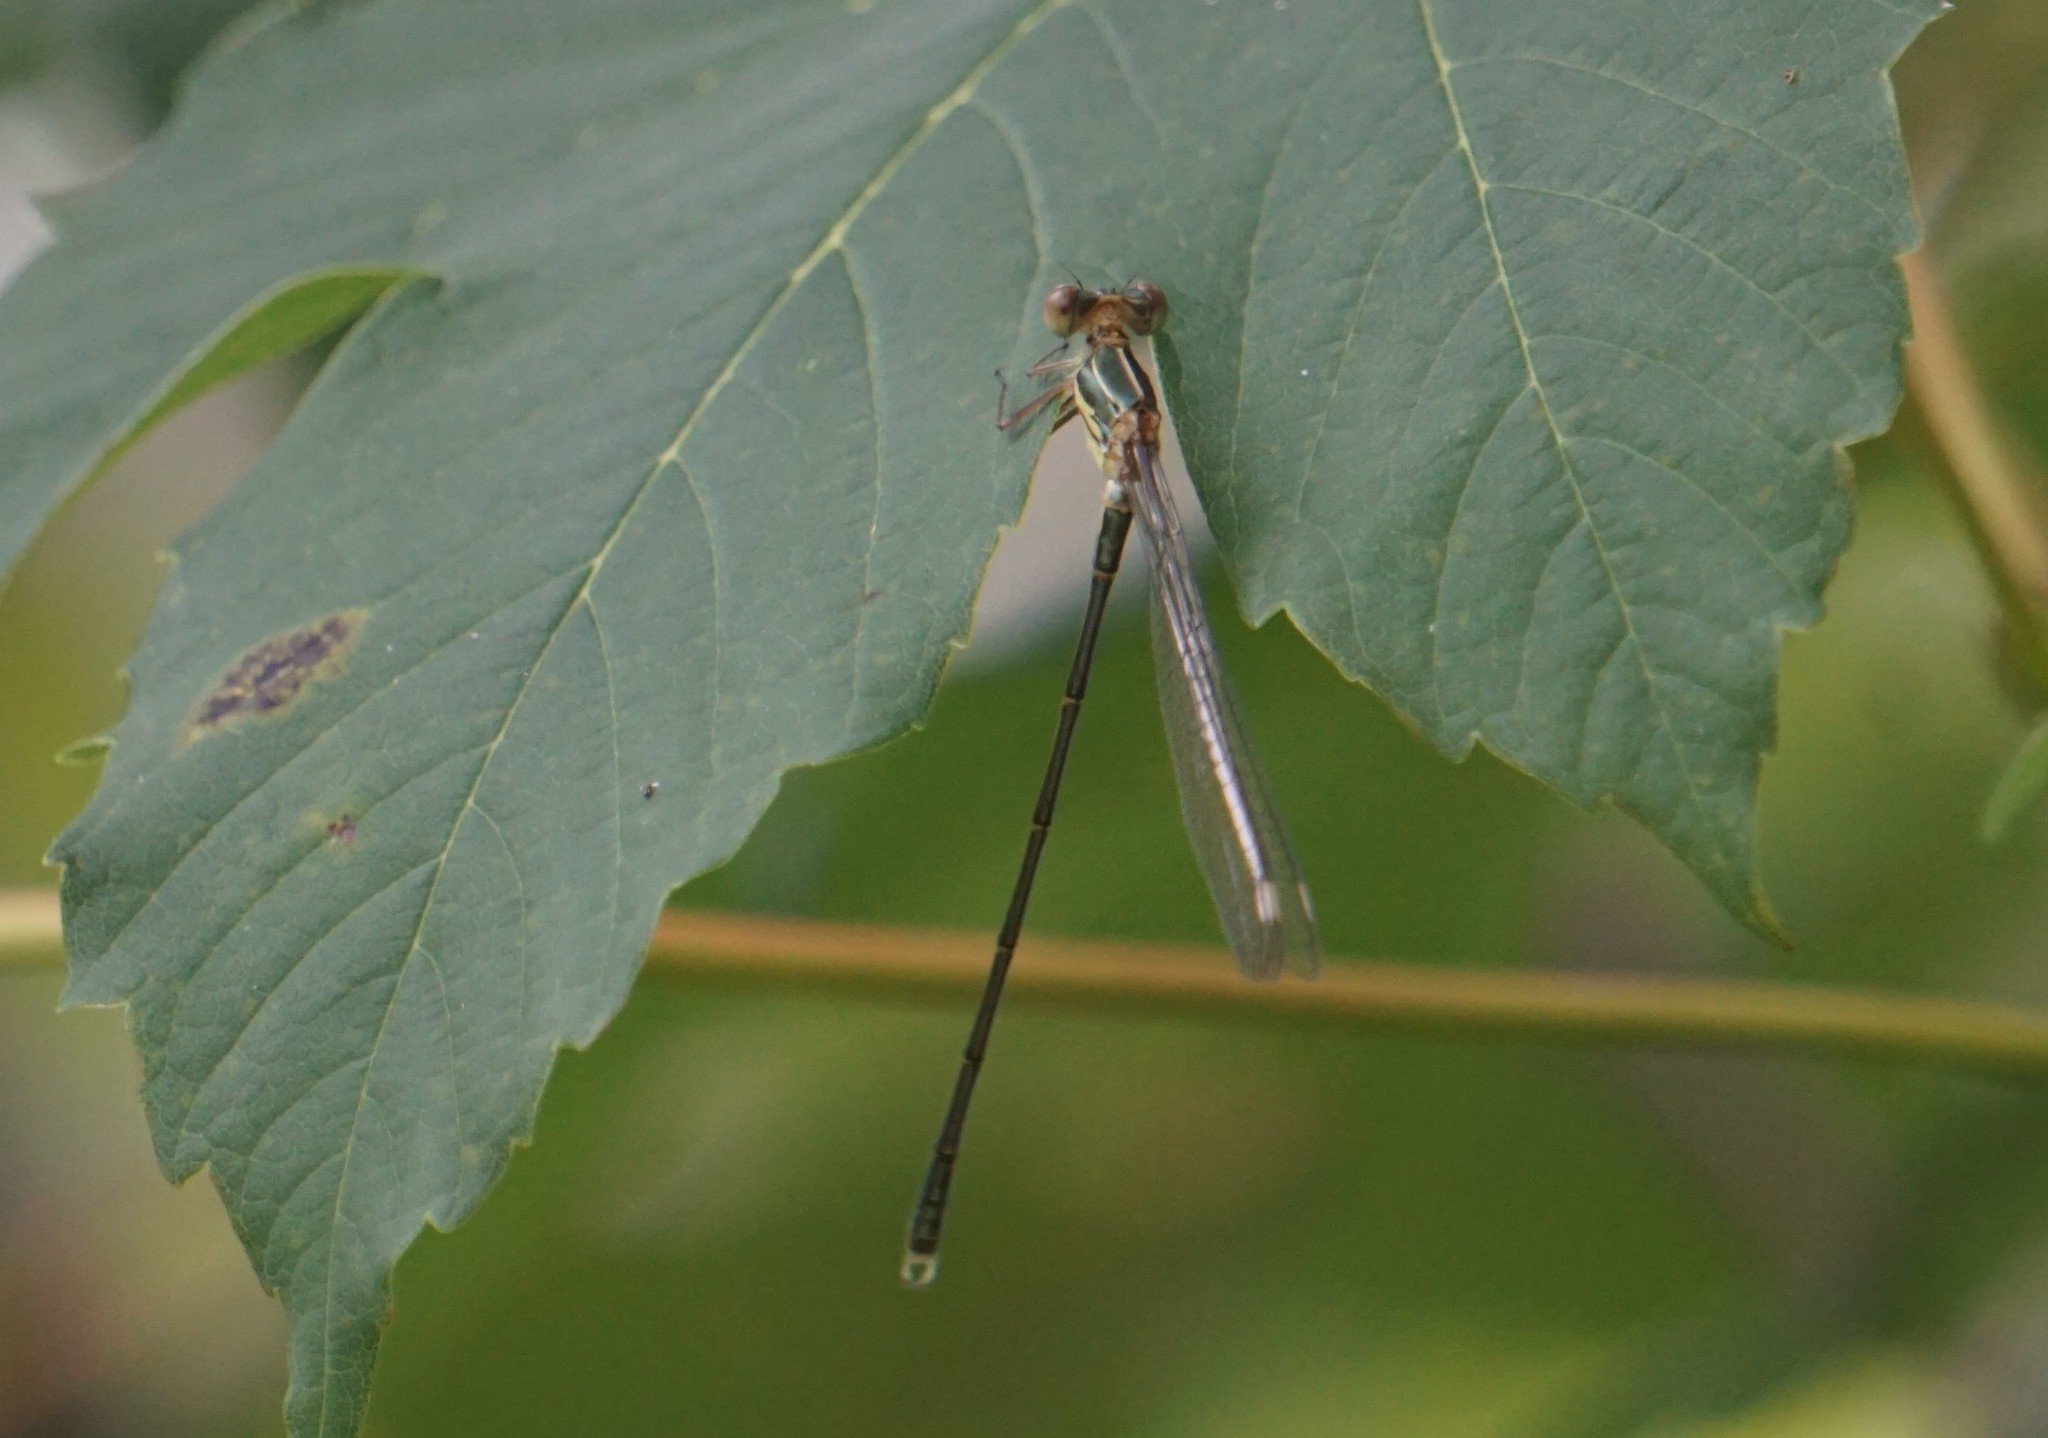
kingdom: Animalia
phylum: Arthropoda
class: Insecta
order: Odonata
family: Lestidae
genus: Chalcolestes
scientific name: Chalcolestes viridis
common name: Green emerald damselfly
